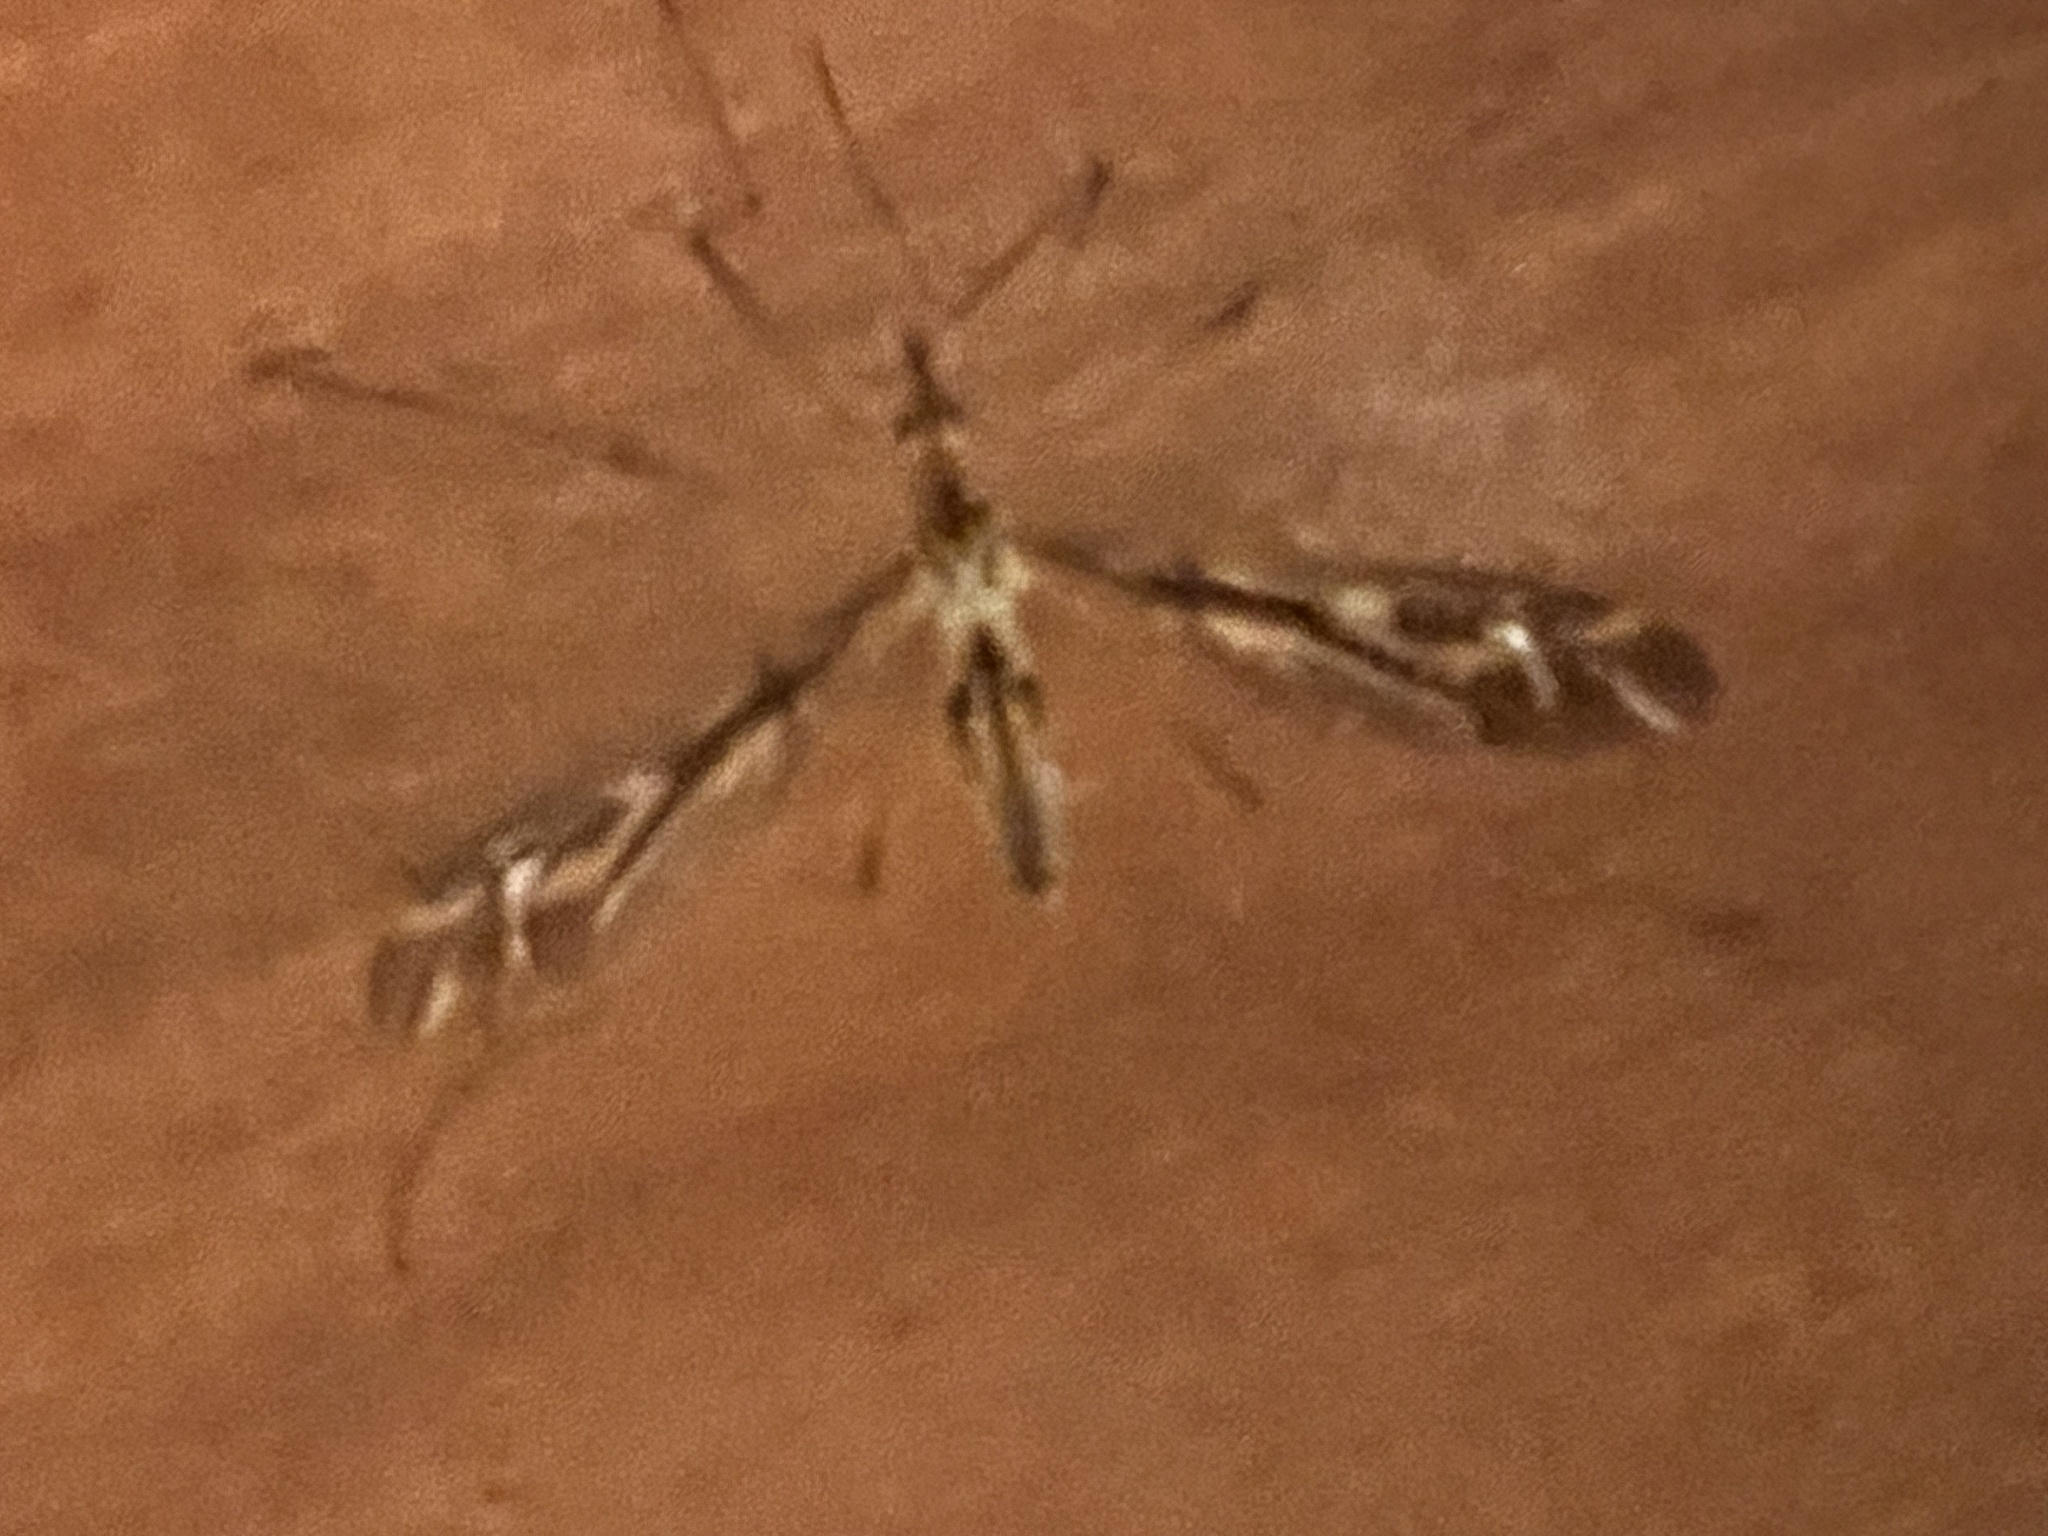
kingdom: Animalia
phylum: Arthropoda
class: Insecta
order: Diptera
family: Tipulidae
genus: Leptotarsus
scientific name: Leptotarsus huttoni
